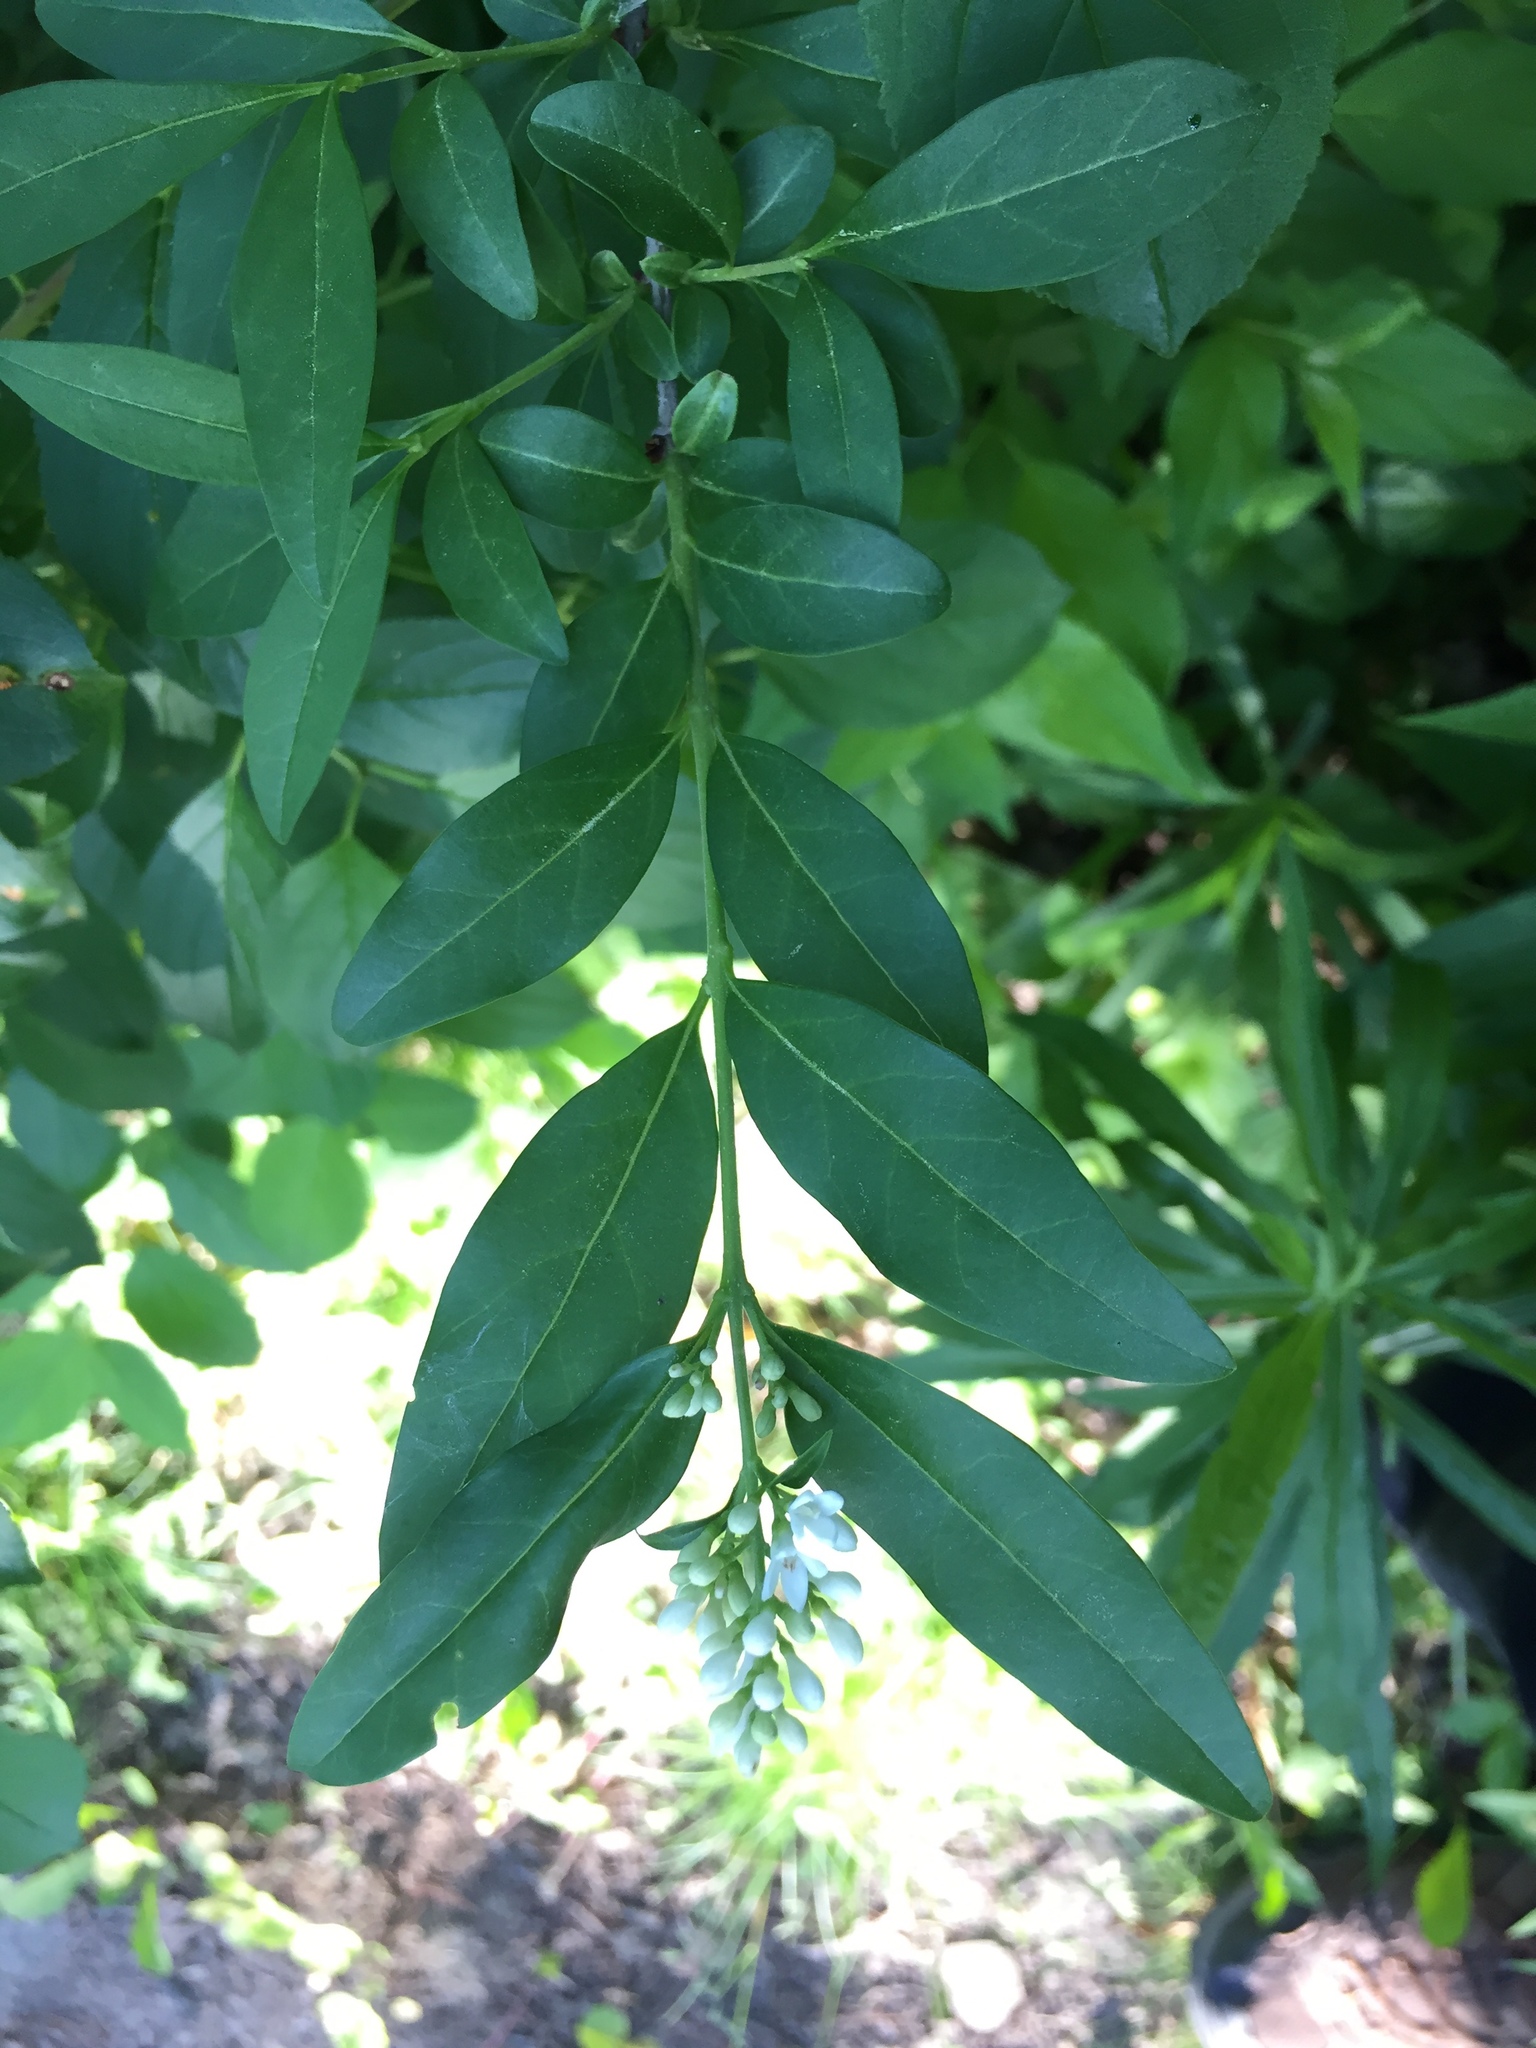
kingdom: Plantae
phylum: Tracheophyta
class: Magnoliopsida
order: Lamiales
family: Oleaceae
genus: Ligustrum
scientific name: Ligustrum vulgare
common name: Wild privet
